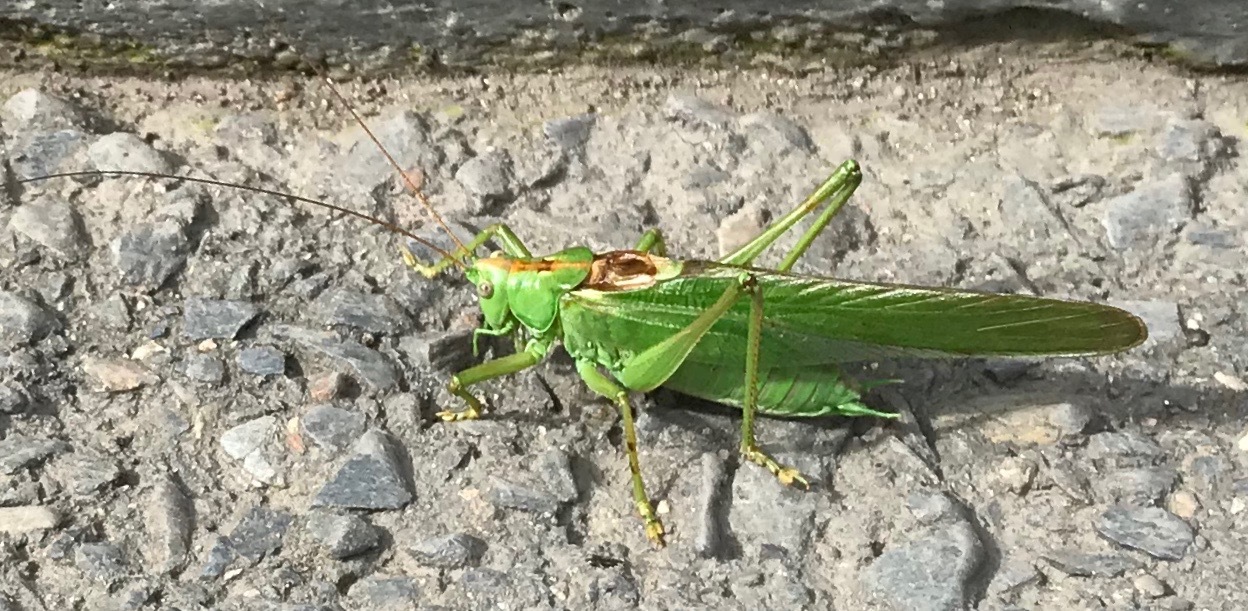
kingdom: Animalia
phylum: Arthropoda
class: Insecta
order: Orthoptera
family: Tettigoniidae
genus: Tettigonia
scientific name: Tettigonia viridissima
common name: Great green bush-cricket
